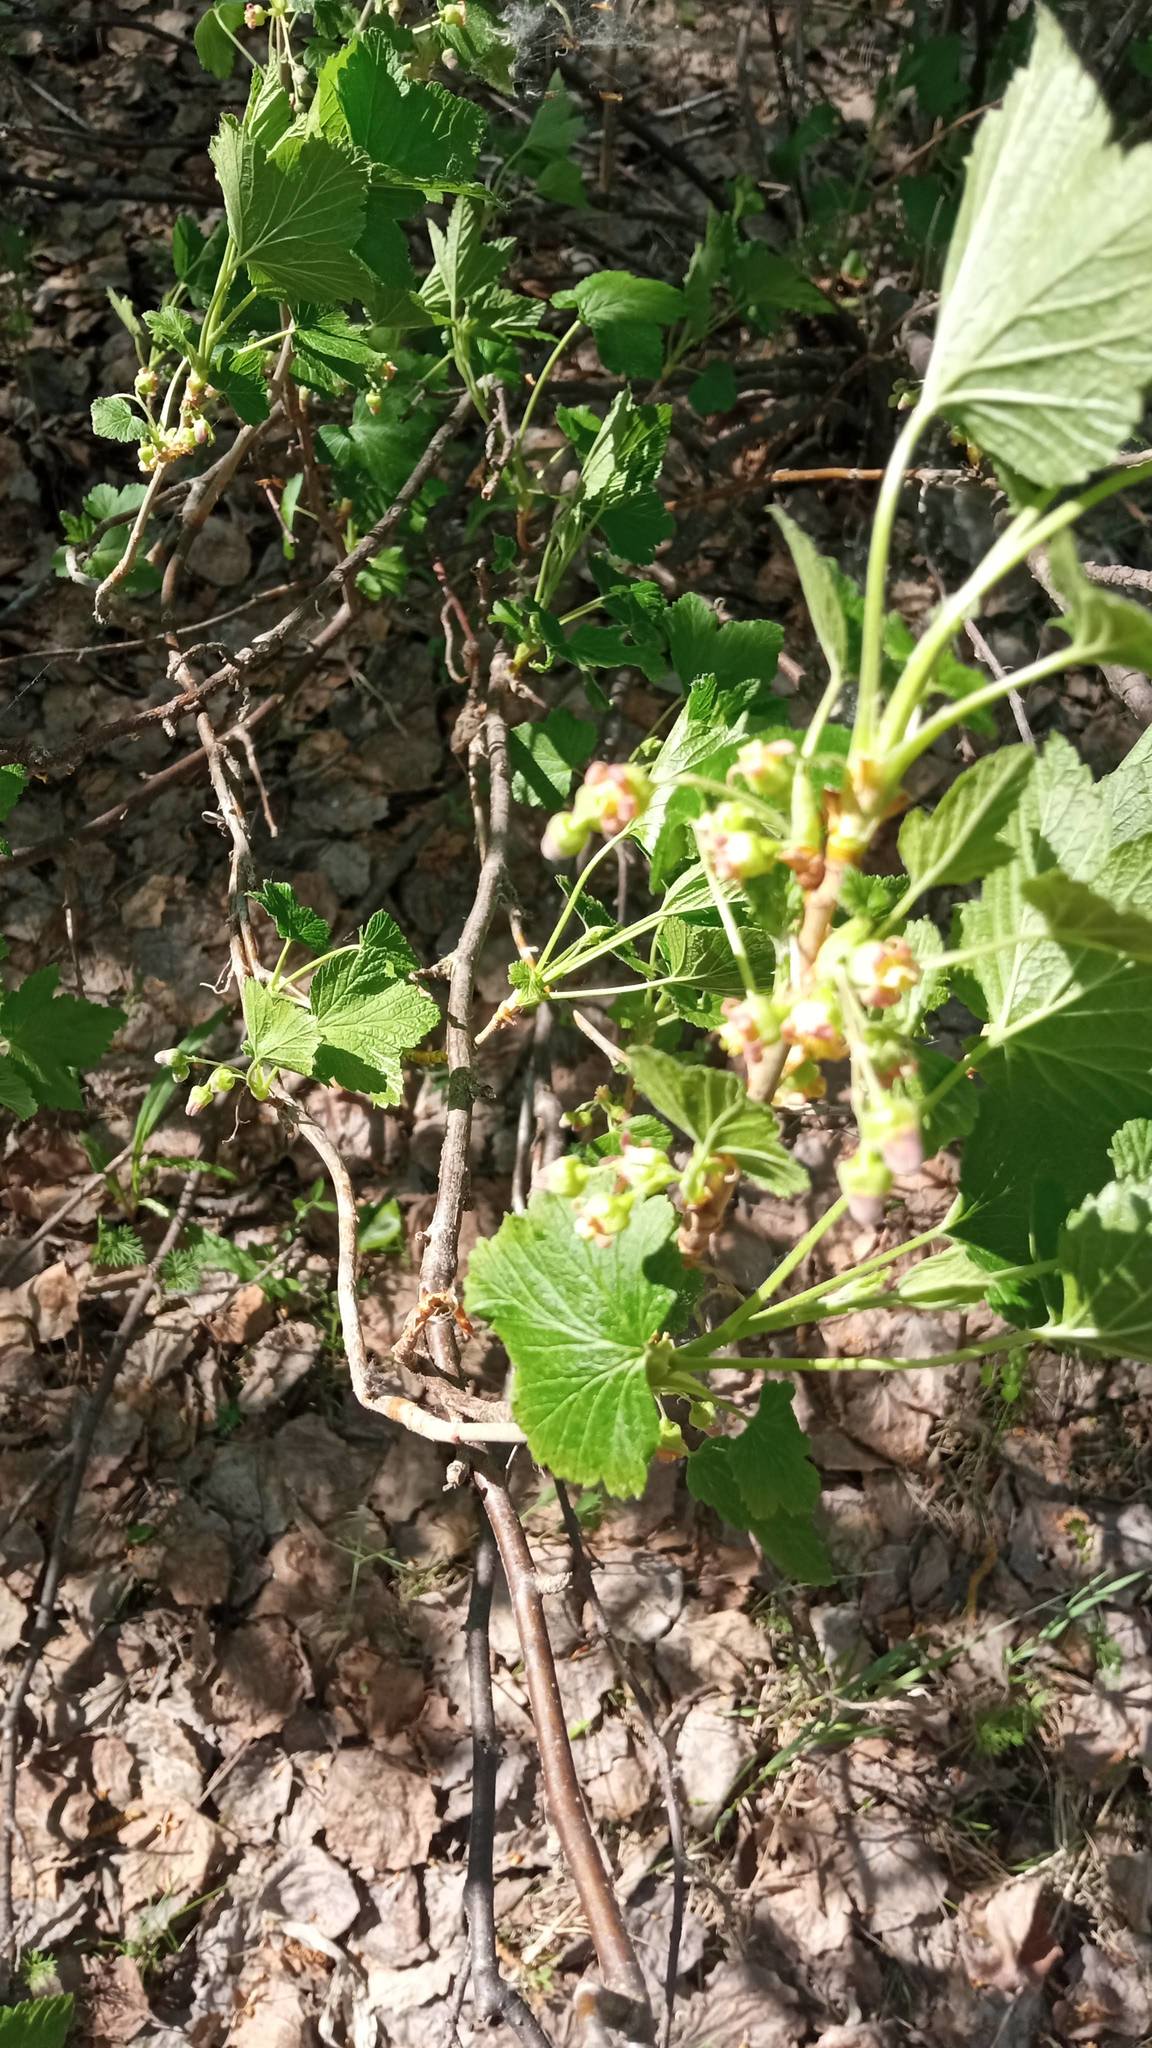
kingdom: Plantae
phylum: Tracheophyta
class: Magnoliopsida
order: Saxifragales
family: Grossulariaceae
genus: Ribes
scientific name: Ribes nigrum
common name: Black currant
